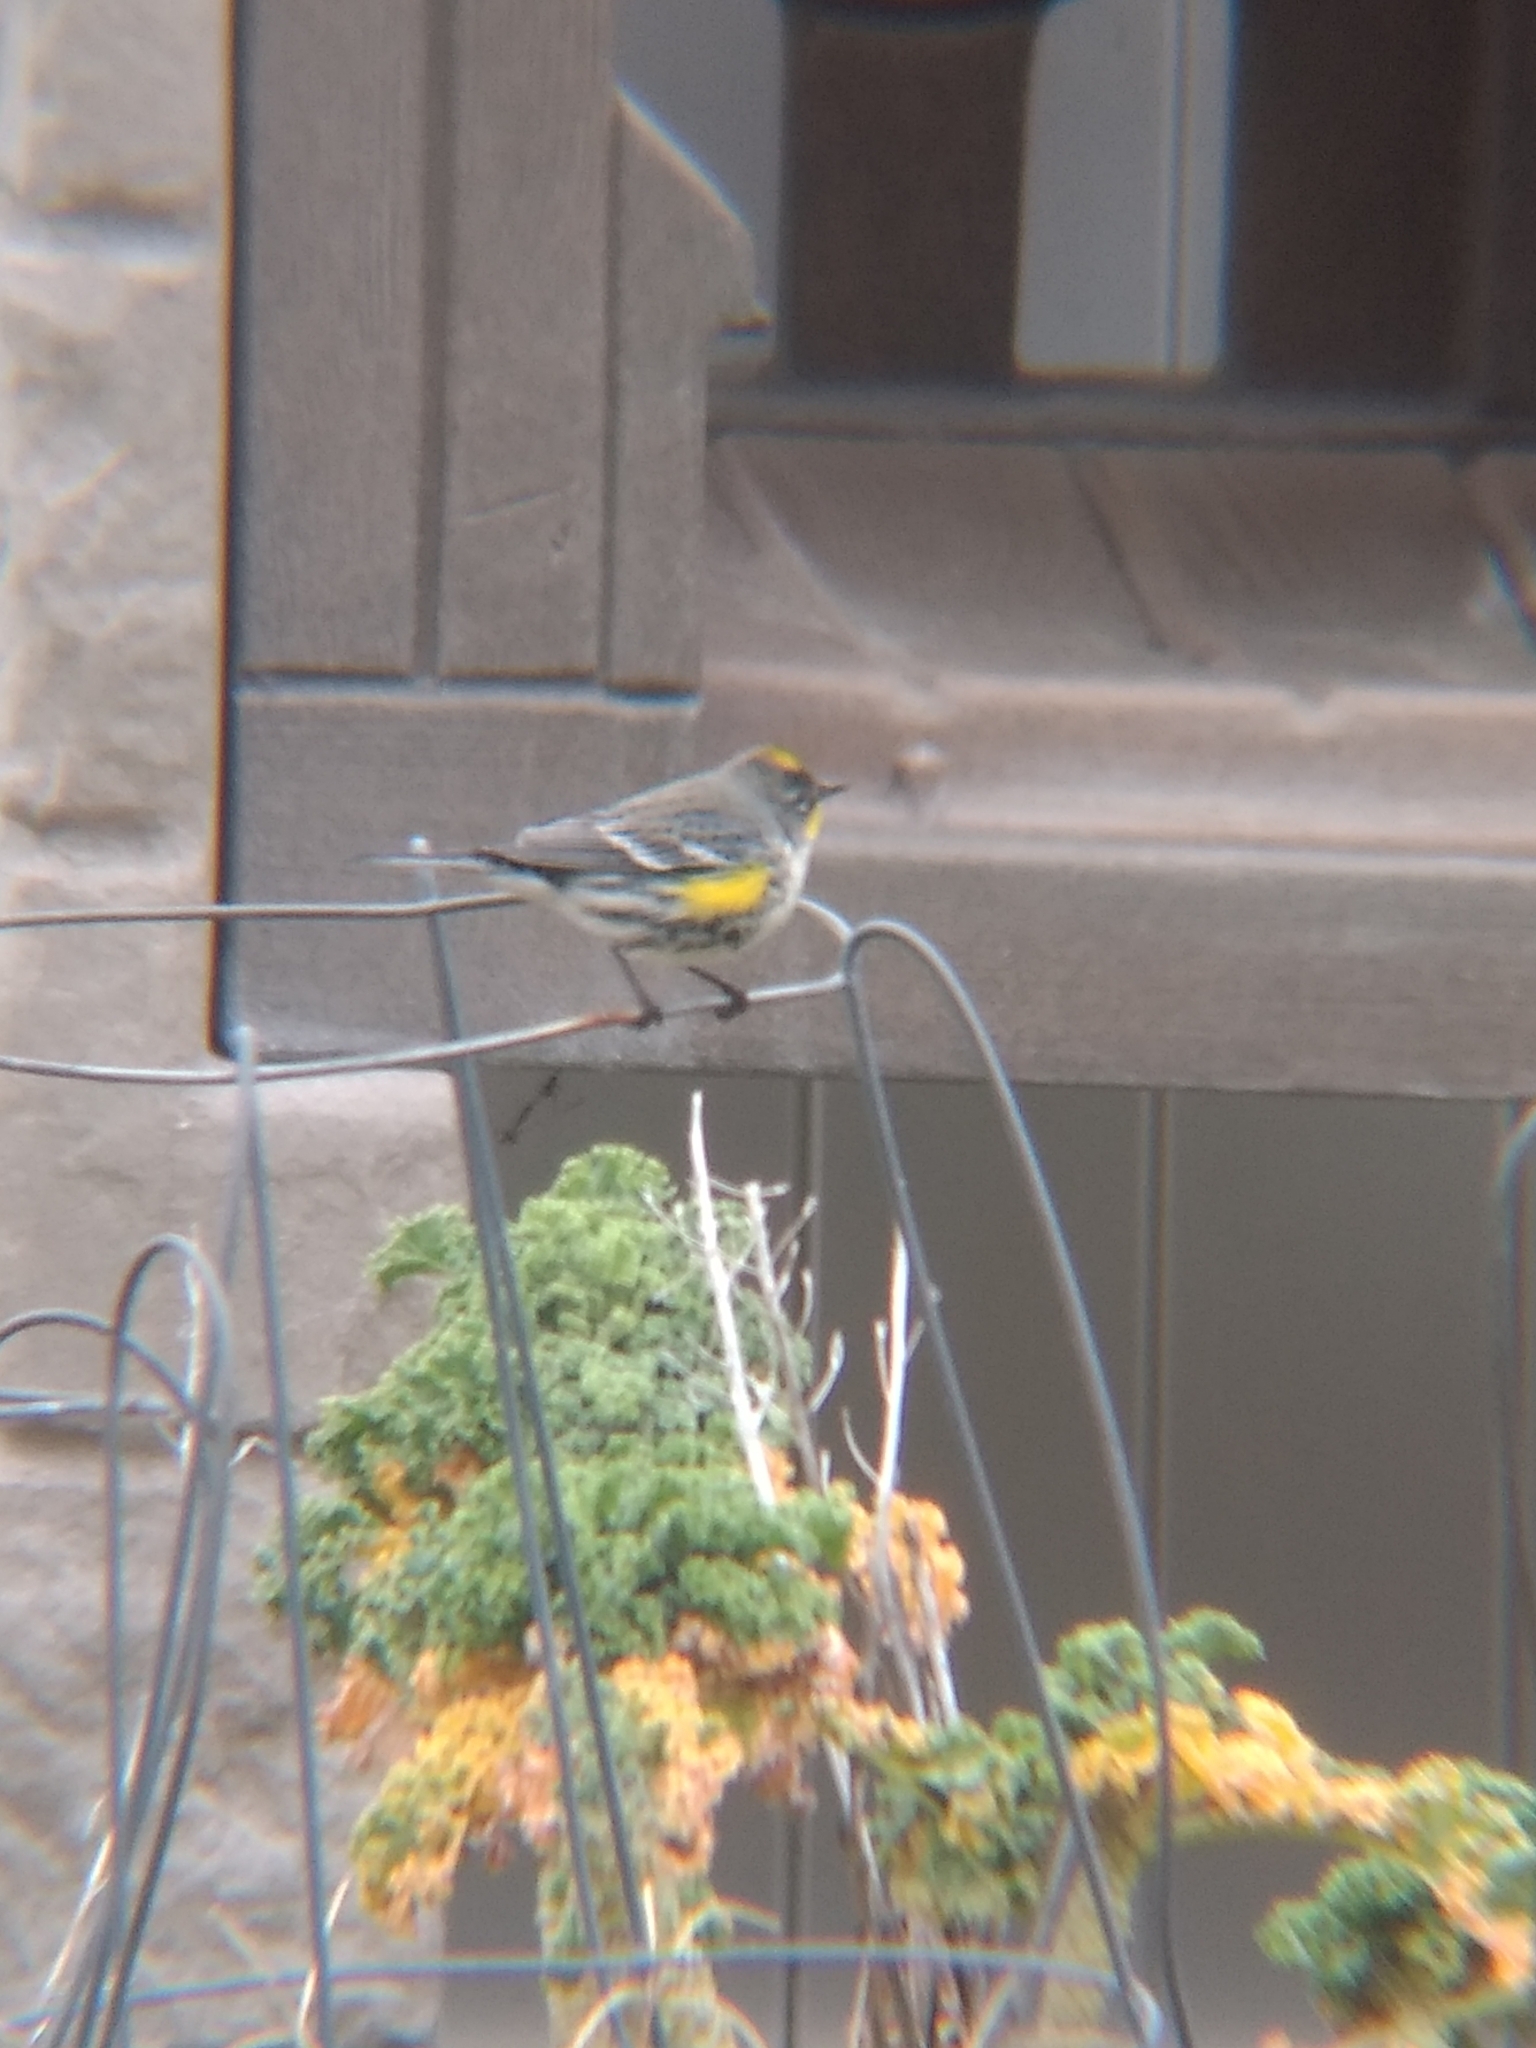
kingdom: Animalia
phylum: Chordata
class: Aves
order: Passeriformes
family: Parulidae
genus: Setophaga
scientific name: Setophaga coronata
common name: Myrtle warbler
